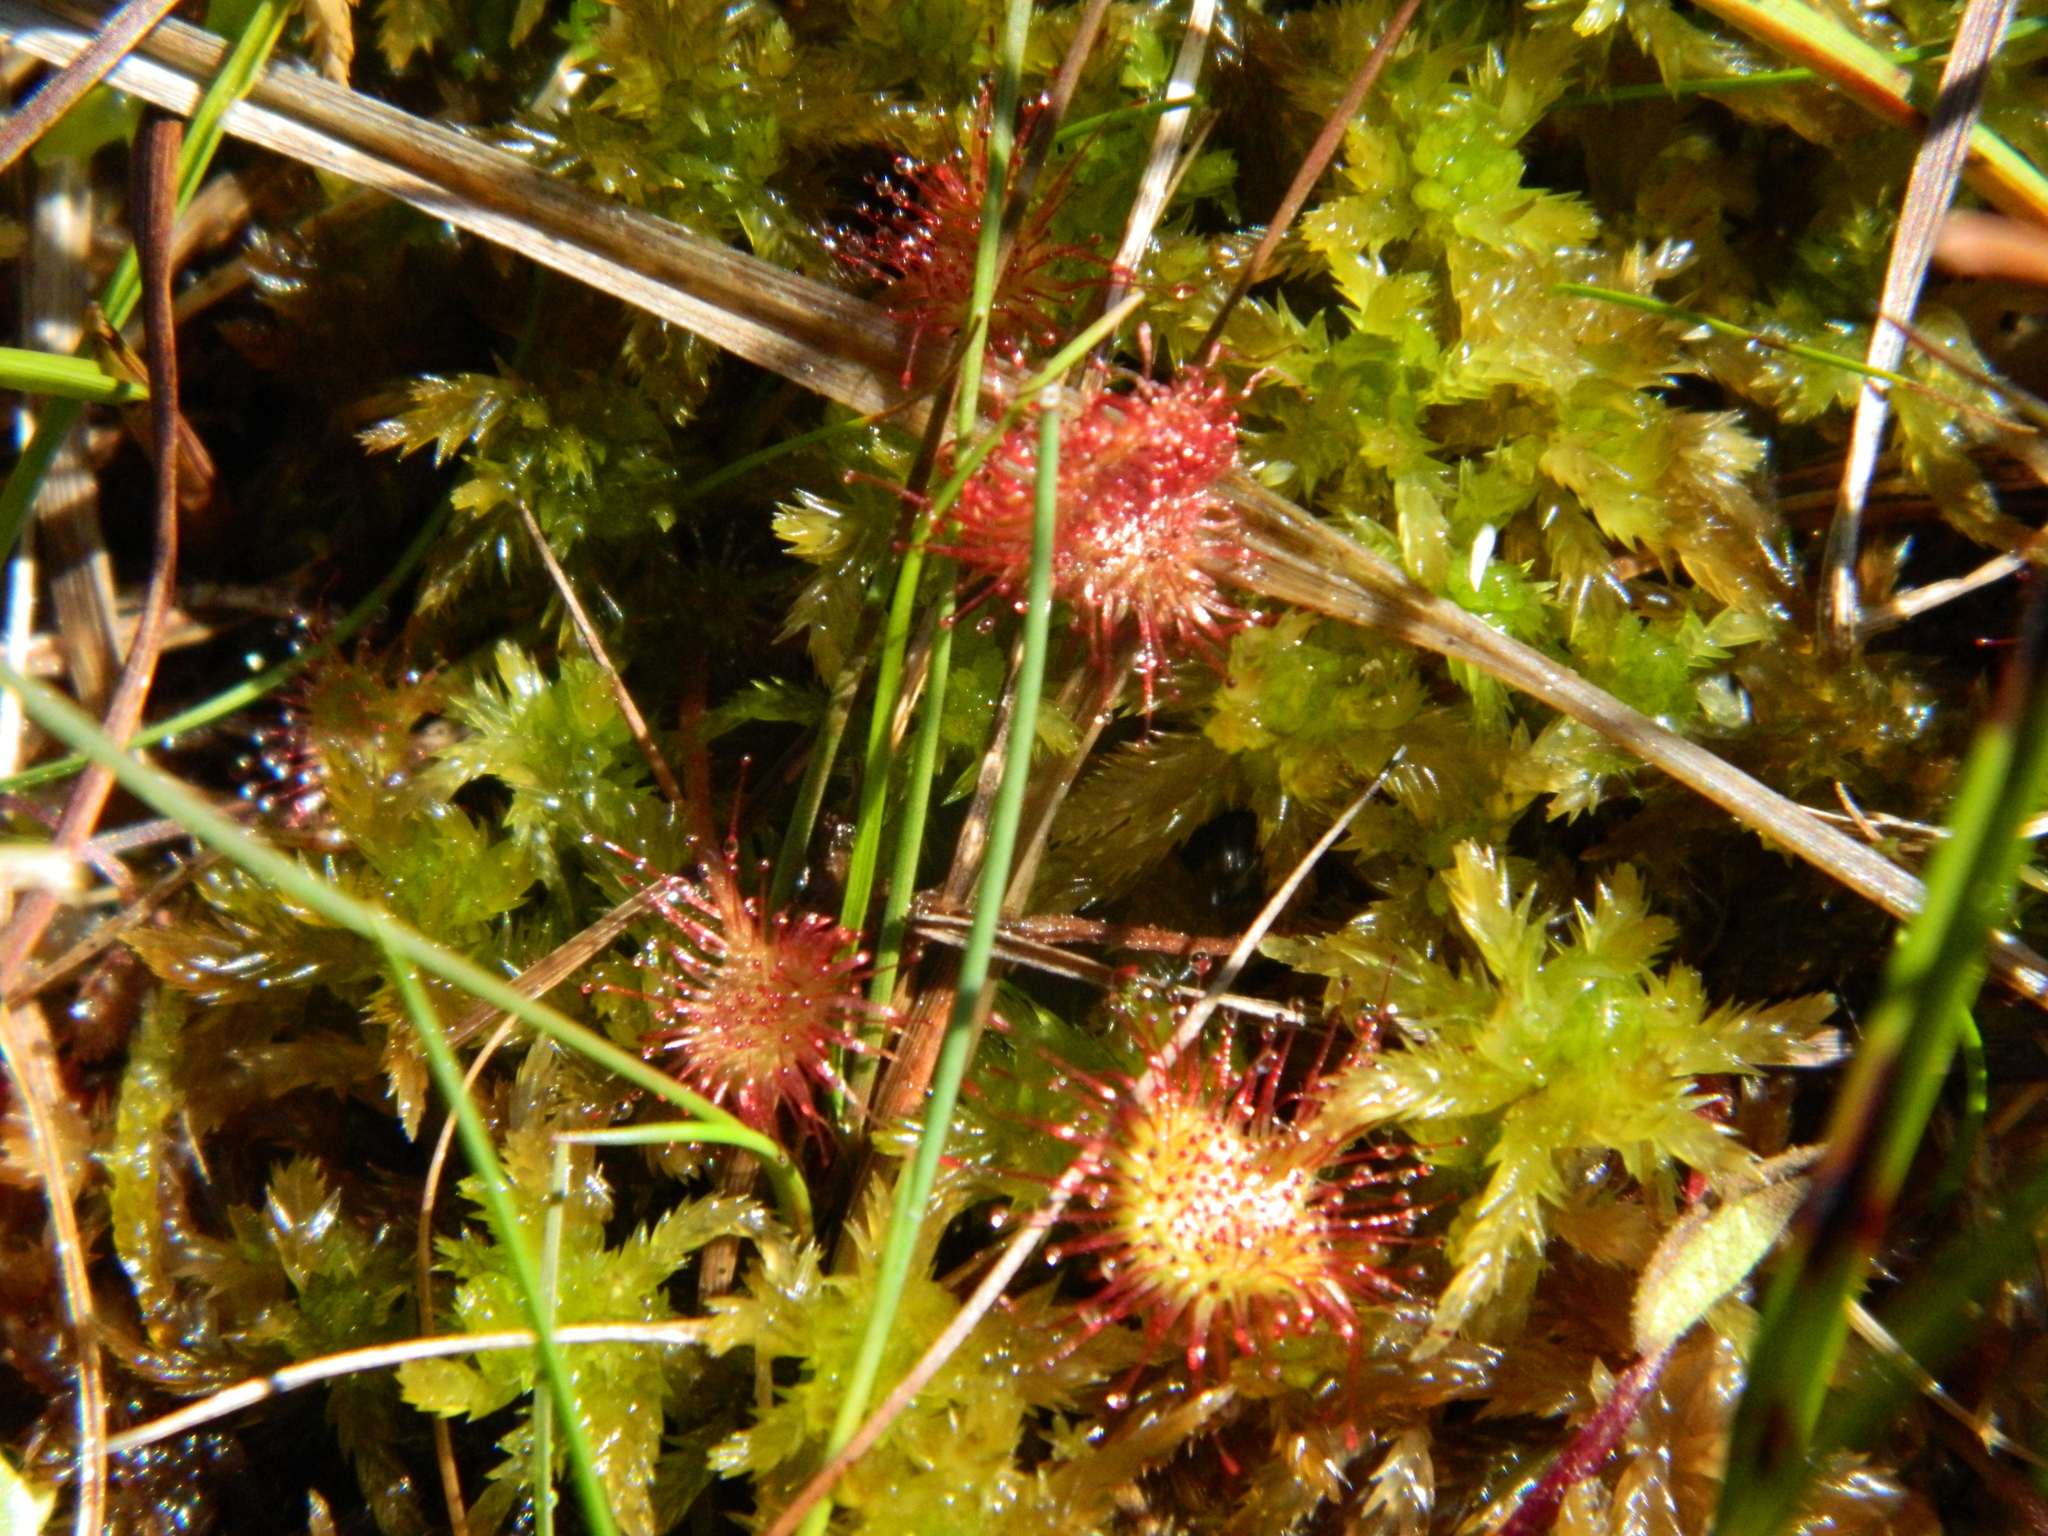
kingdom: Plantae
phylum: Tracheophyta
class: Magnoliopsida
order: Caryophyllales
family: Droseraceae
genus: Drosera
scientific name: Drosera rotundifolia
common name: Round-leaved sundew
